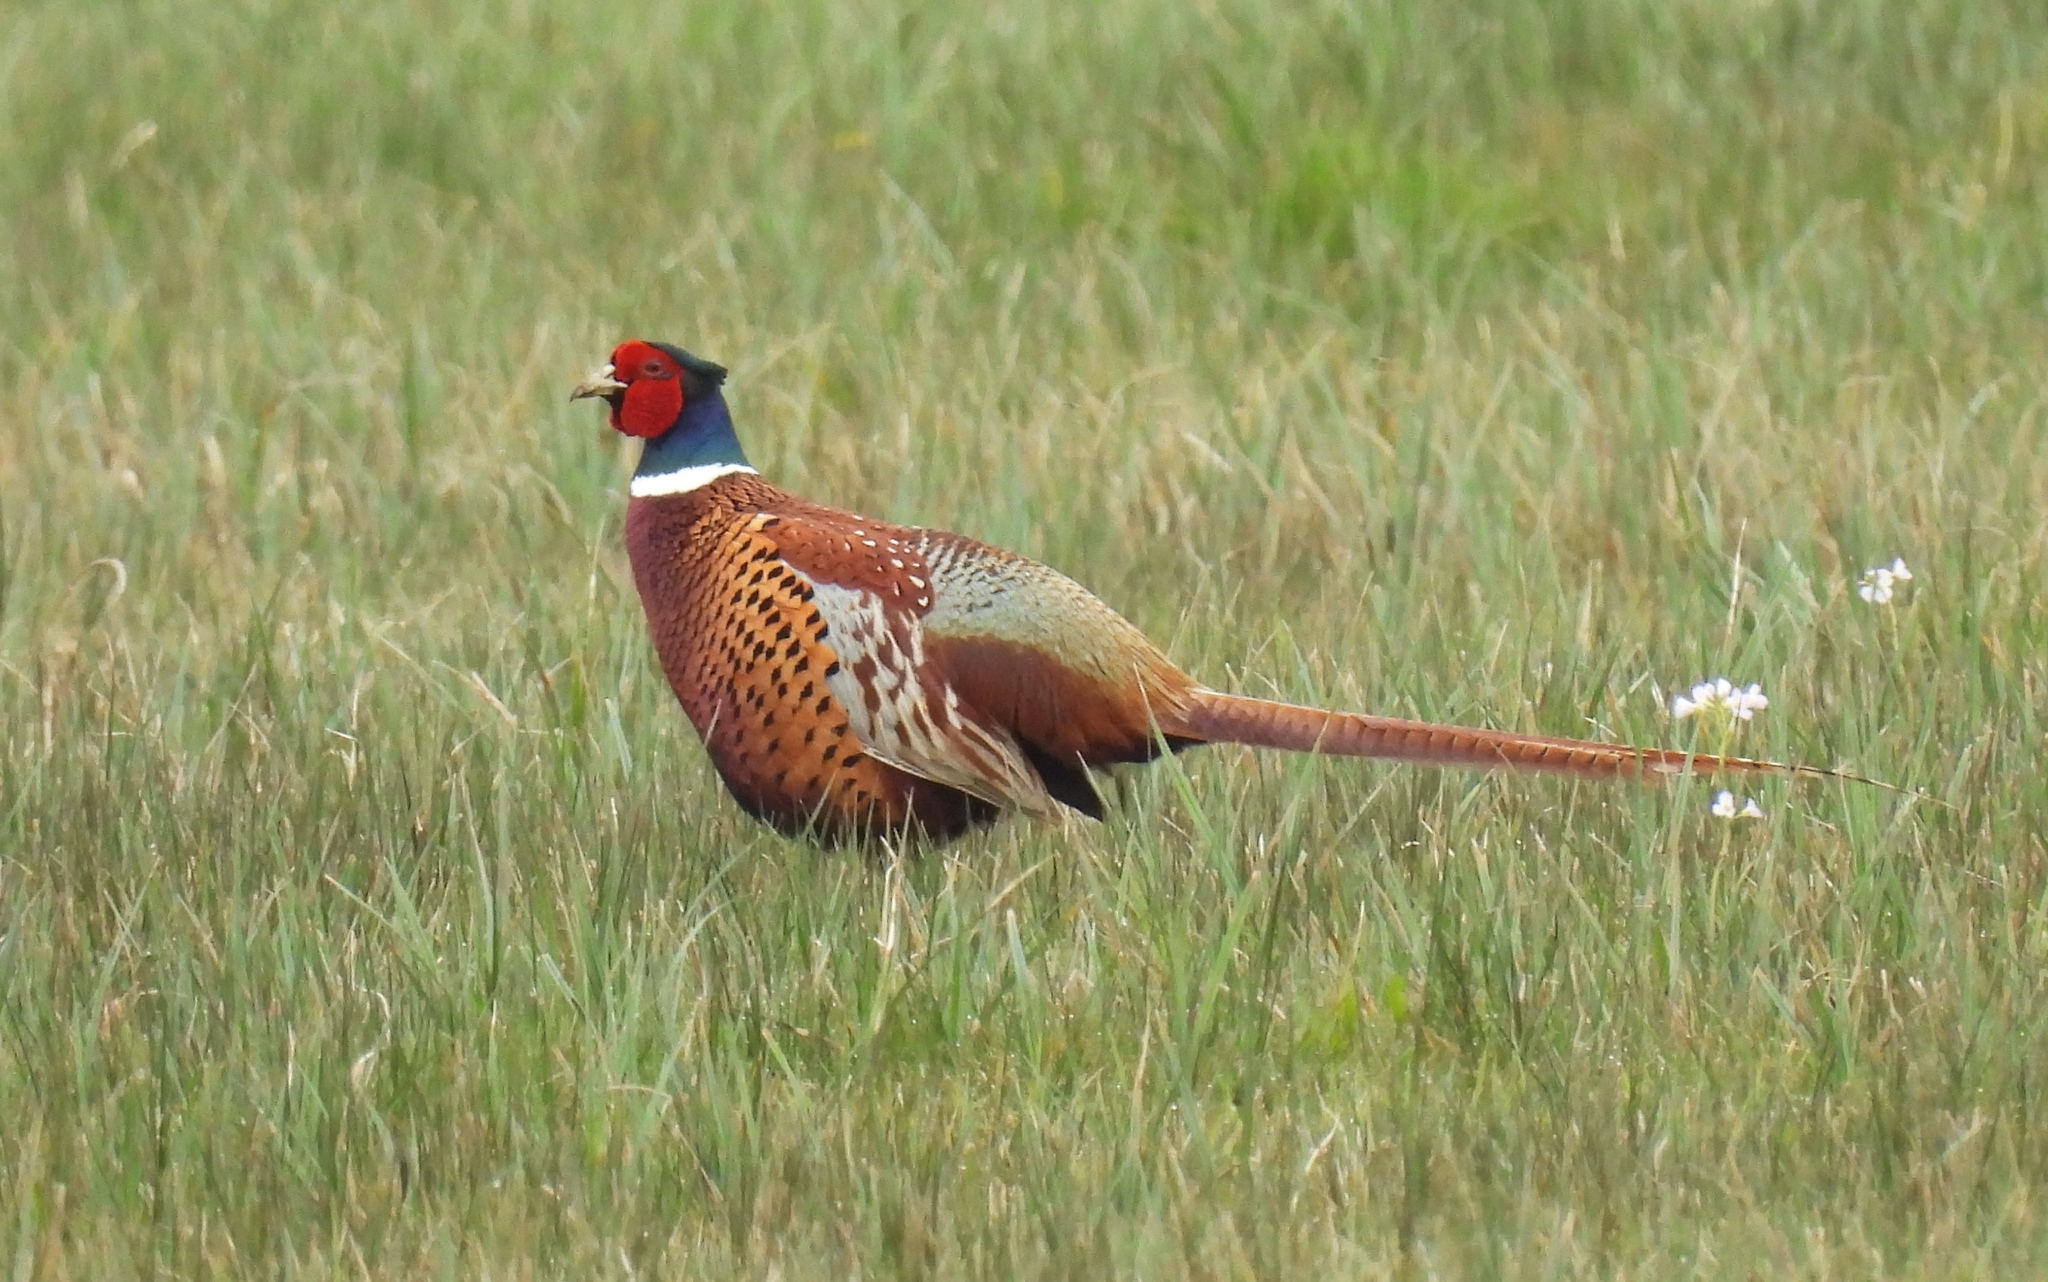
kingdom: Animalia
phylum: Chordata
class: Aves
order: Galliformes
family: Phasianidae
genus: Phasianus
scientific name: Phasianus colchicus
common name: Common pheasant
